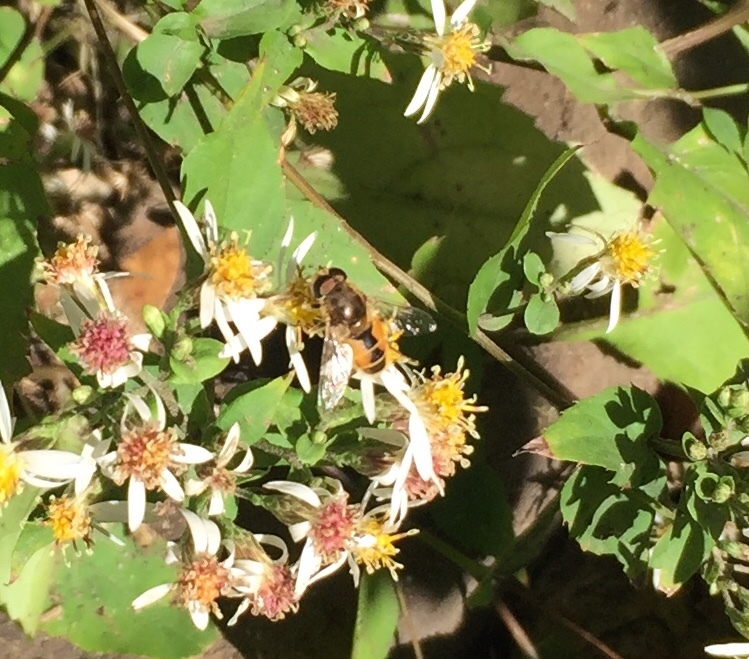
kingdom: Animalia
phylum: Arthropoda
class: Insecta
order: Diptera
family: Syrphidae
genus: Eristalis
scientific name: Eristalis arbustorum
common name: Hover fly
